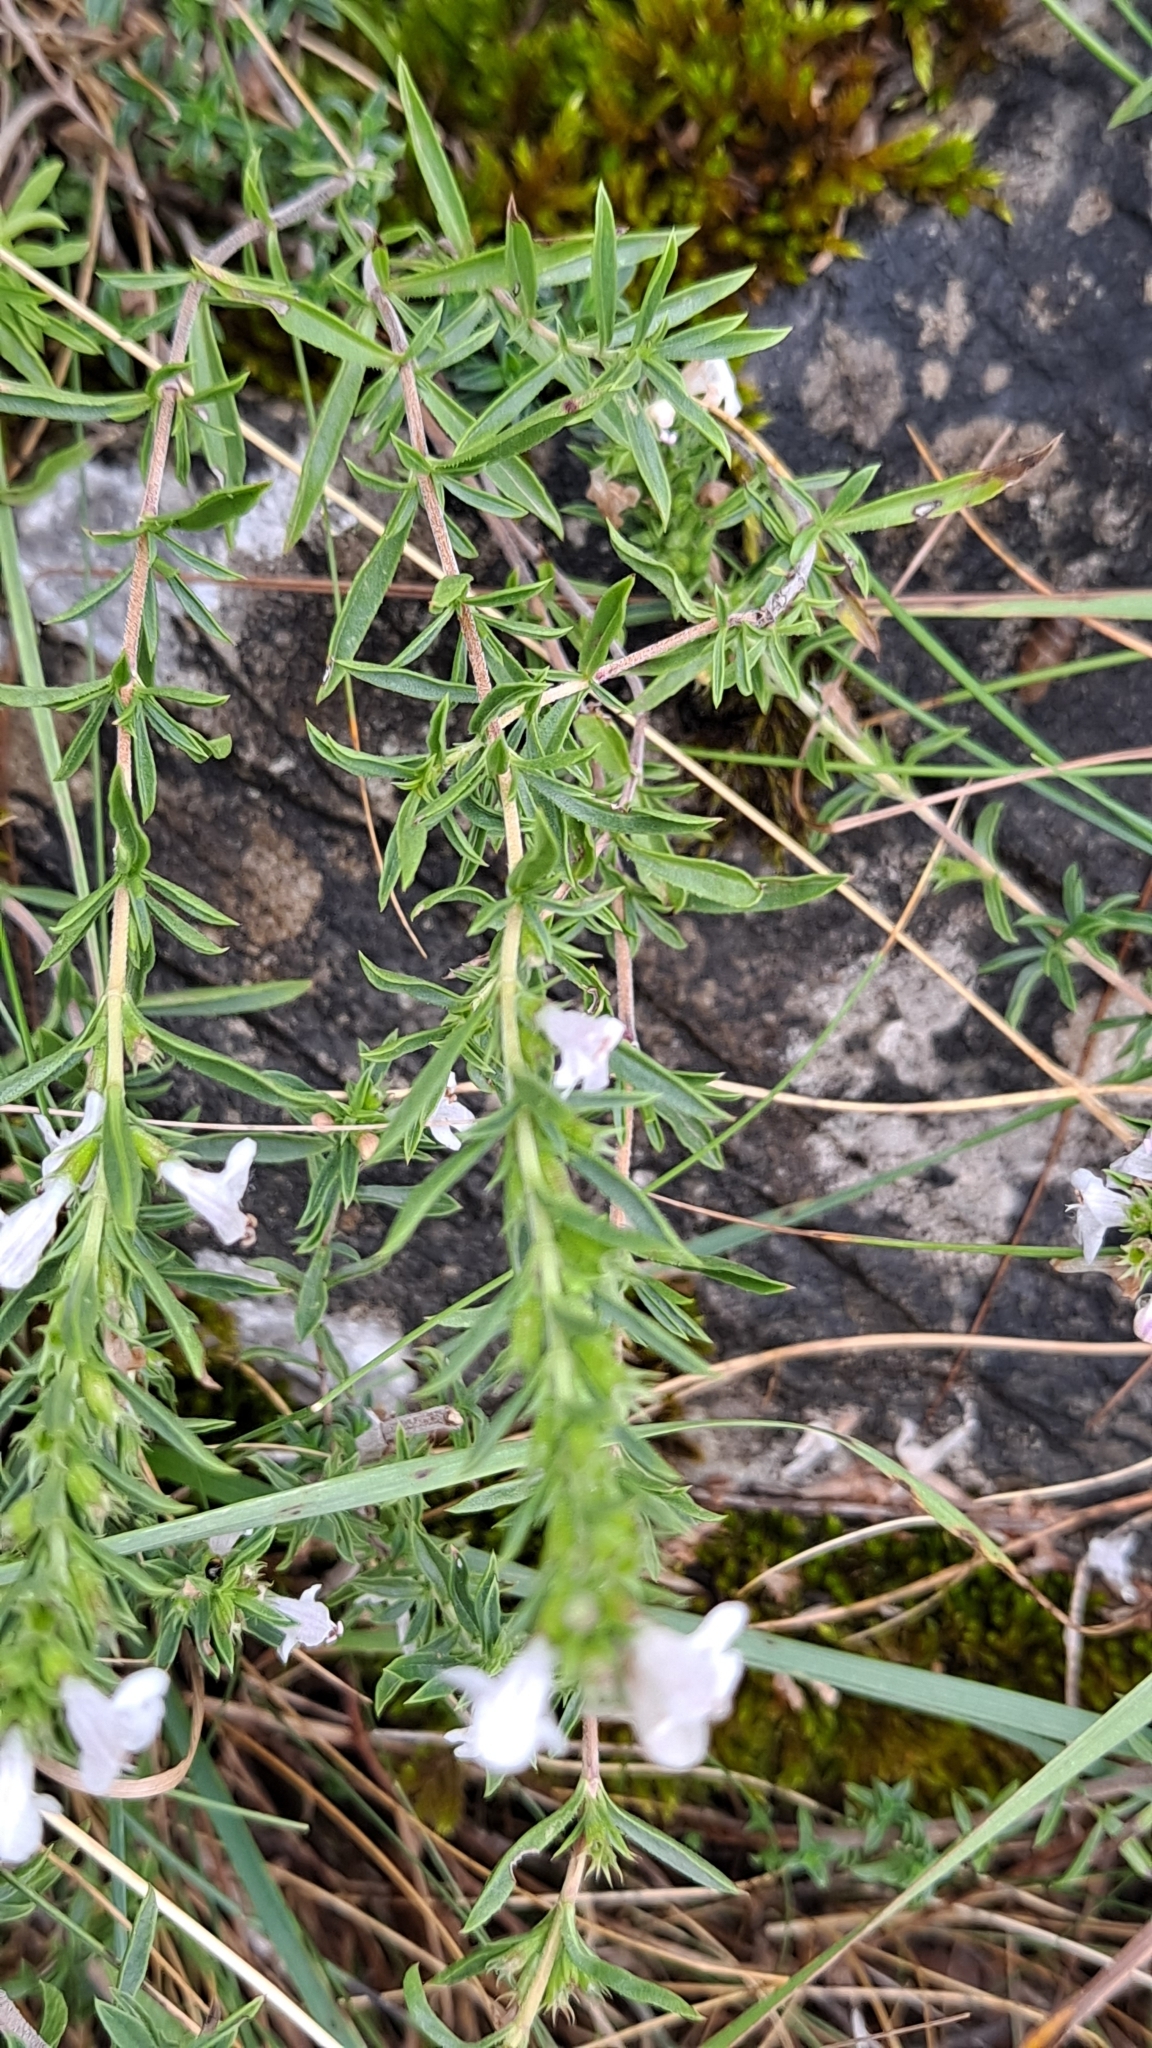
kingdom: Plantae
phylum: Tracheophyta
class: Magnoliopsida
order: Lamiales
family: Lamiaceae
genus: Satureja
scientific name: Satureja montana
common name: Winter savory
